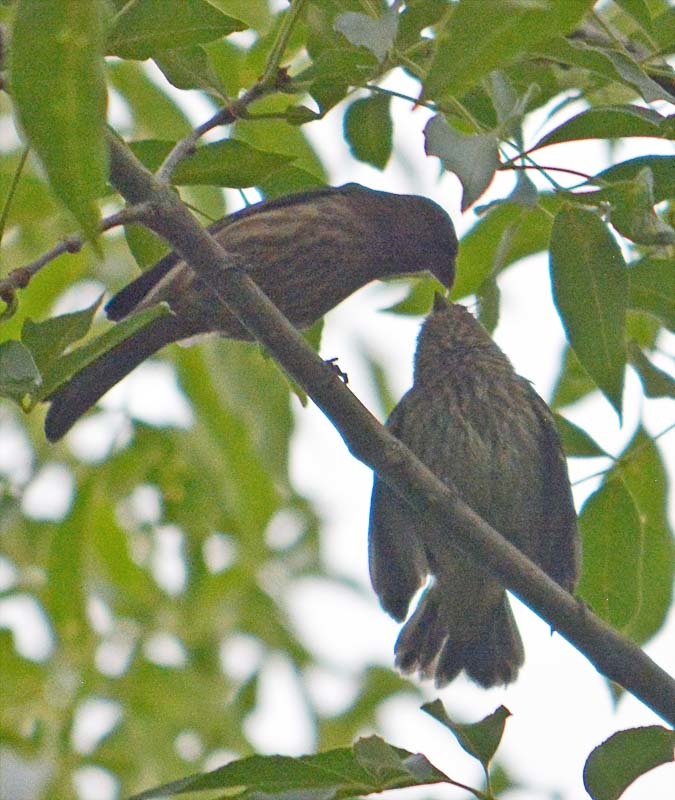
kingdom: Animalia
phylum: Chordata
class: Aves
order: Passeriformes
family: Fringillidae
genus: Haemorhous
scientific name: Haemorhous mexicanus
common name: House finch
